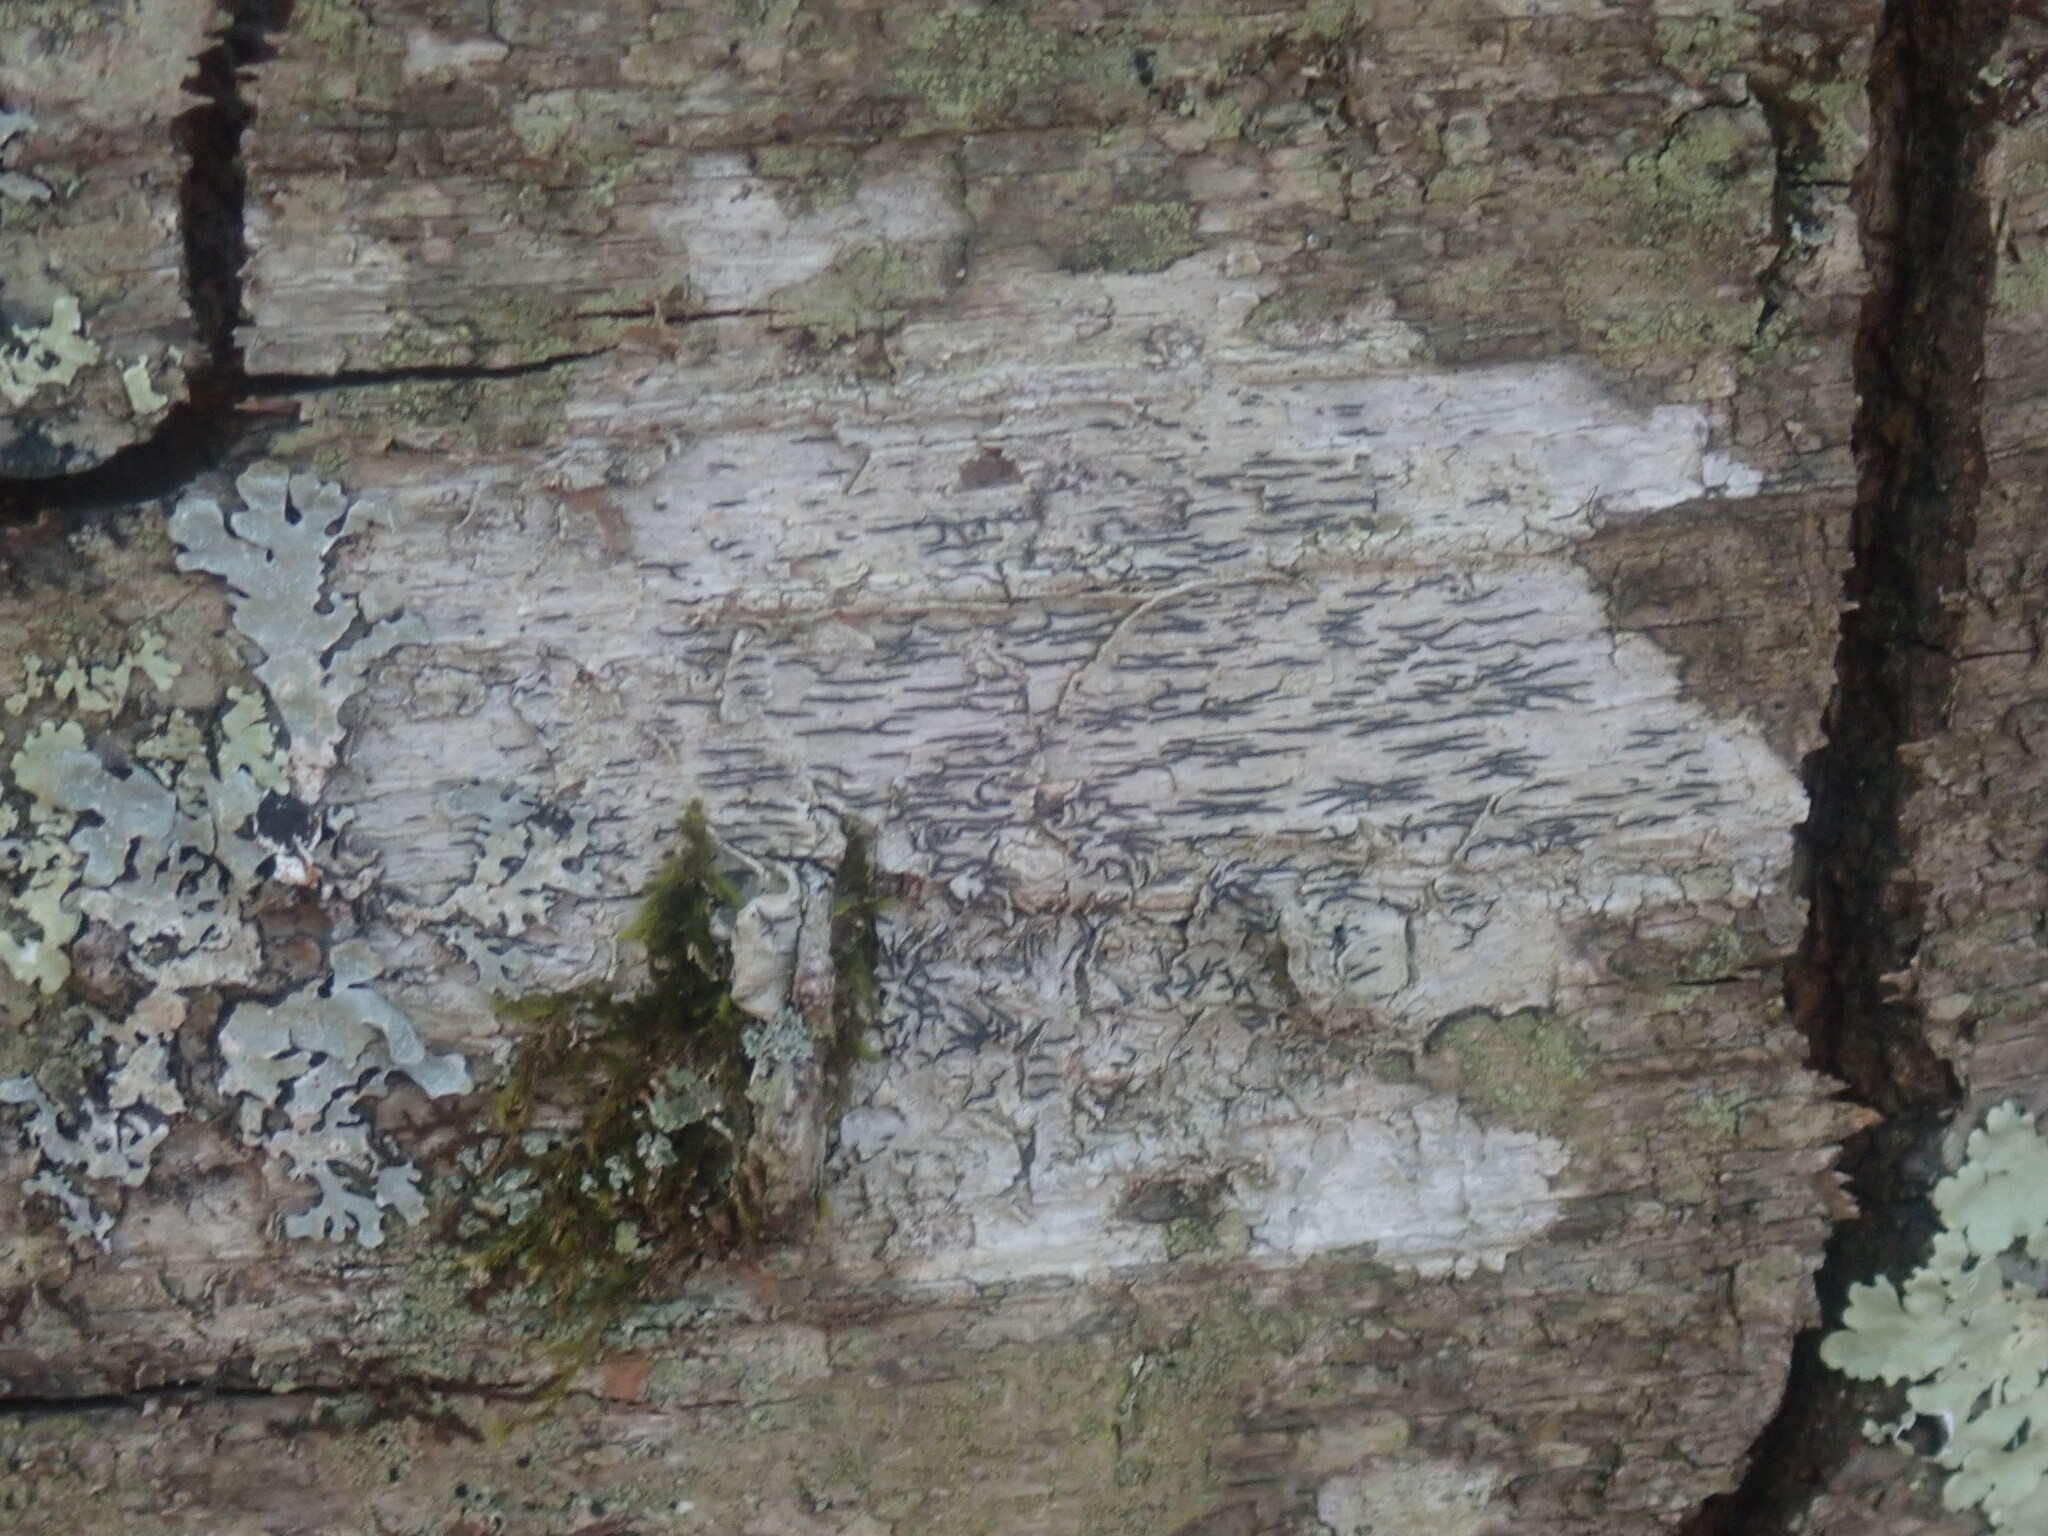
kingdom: Fungi
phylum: Ascomycota
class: Lecanoromycetes
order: Ostropales
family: Graphidaceae
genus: Graphis
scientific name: Graphis scripta
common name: Script lichen
